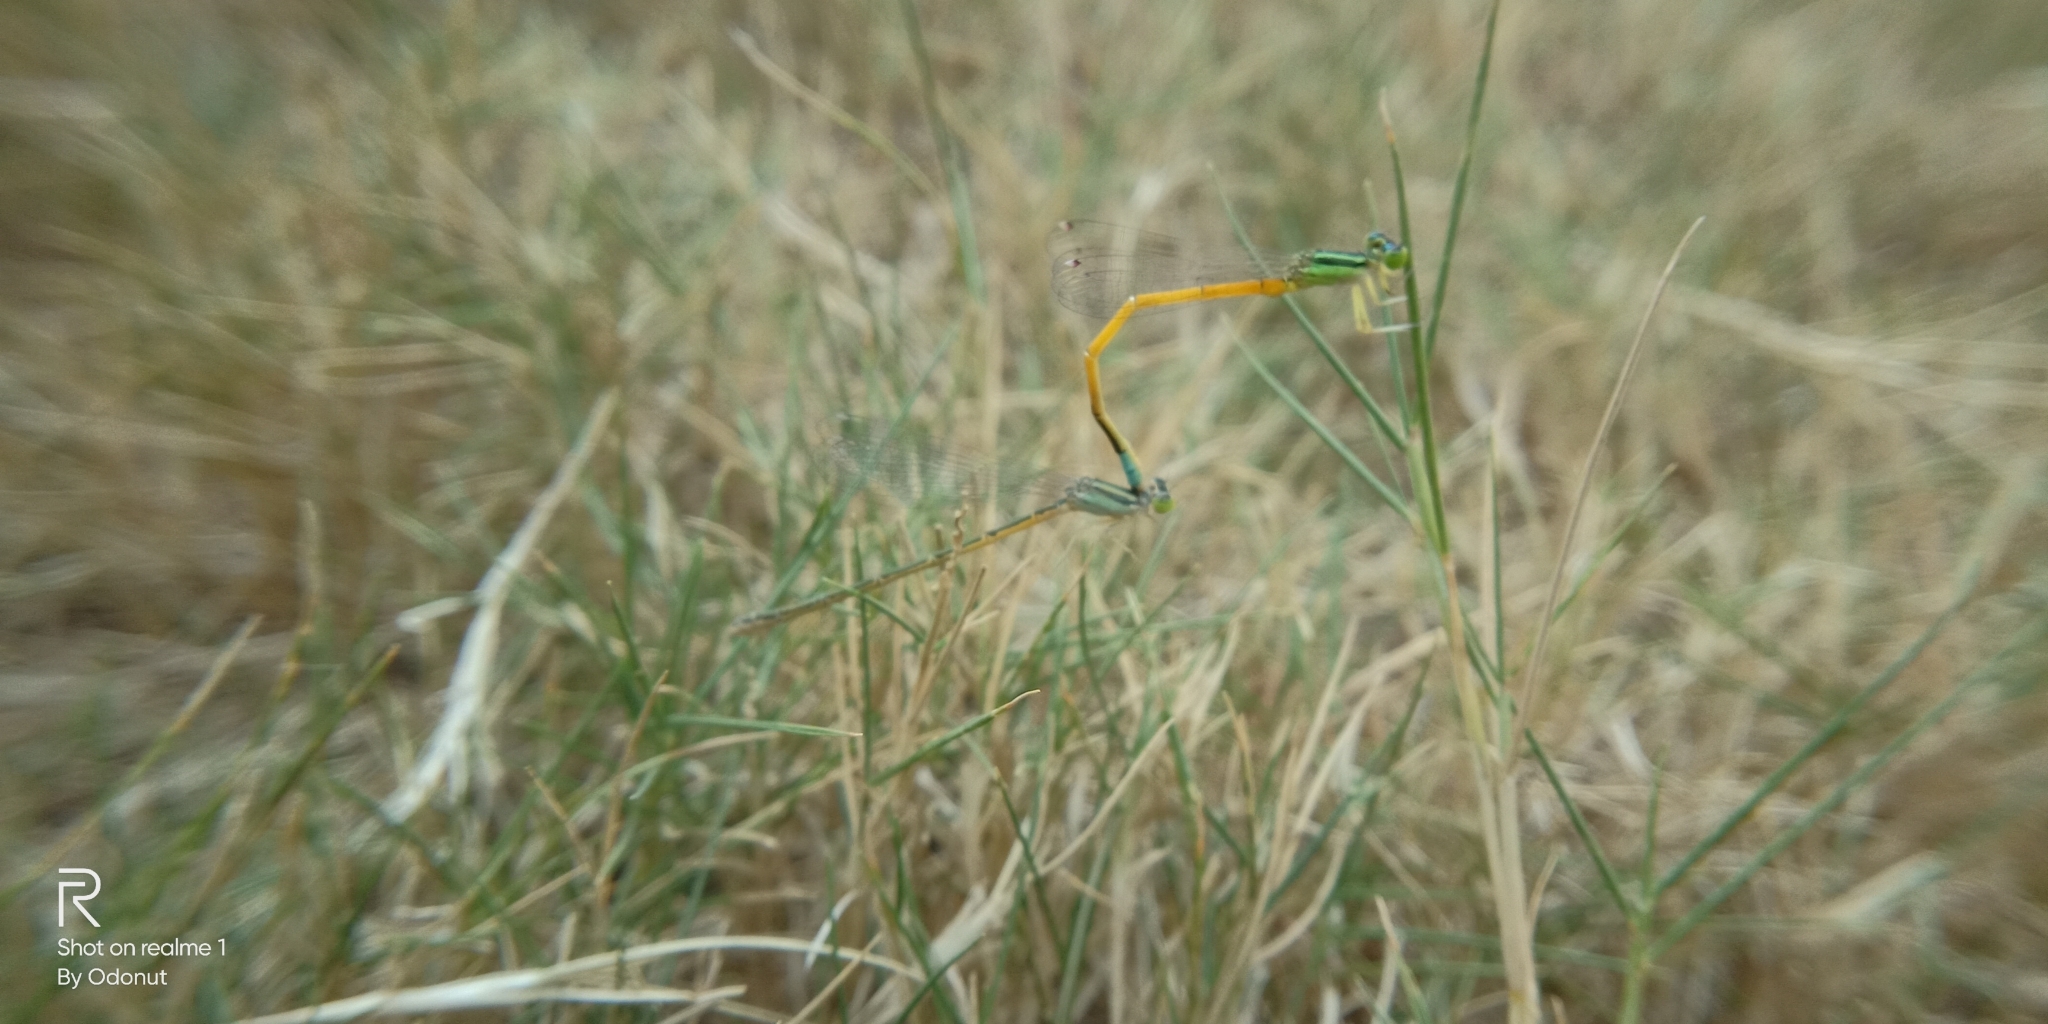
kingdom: Animalia
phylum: Arthropoda
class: Insecta
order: Odonata
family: Coenagrionidae
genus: Ischnura
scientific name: Ischnura rubilio
